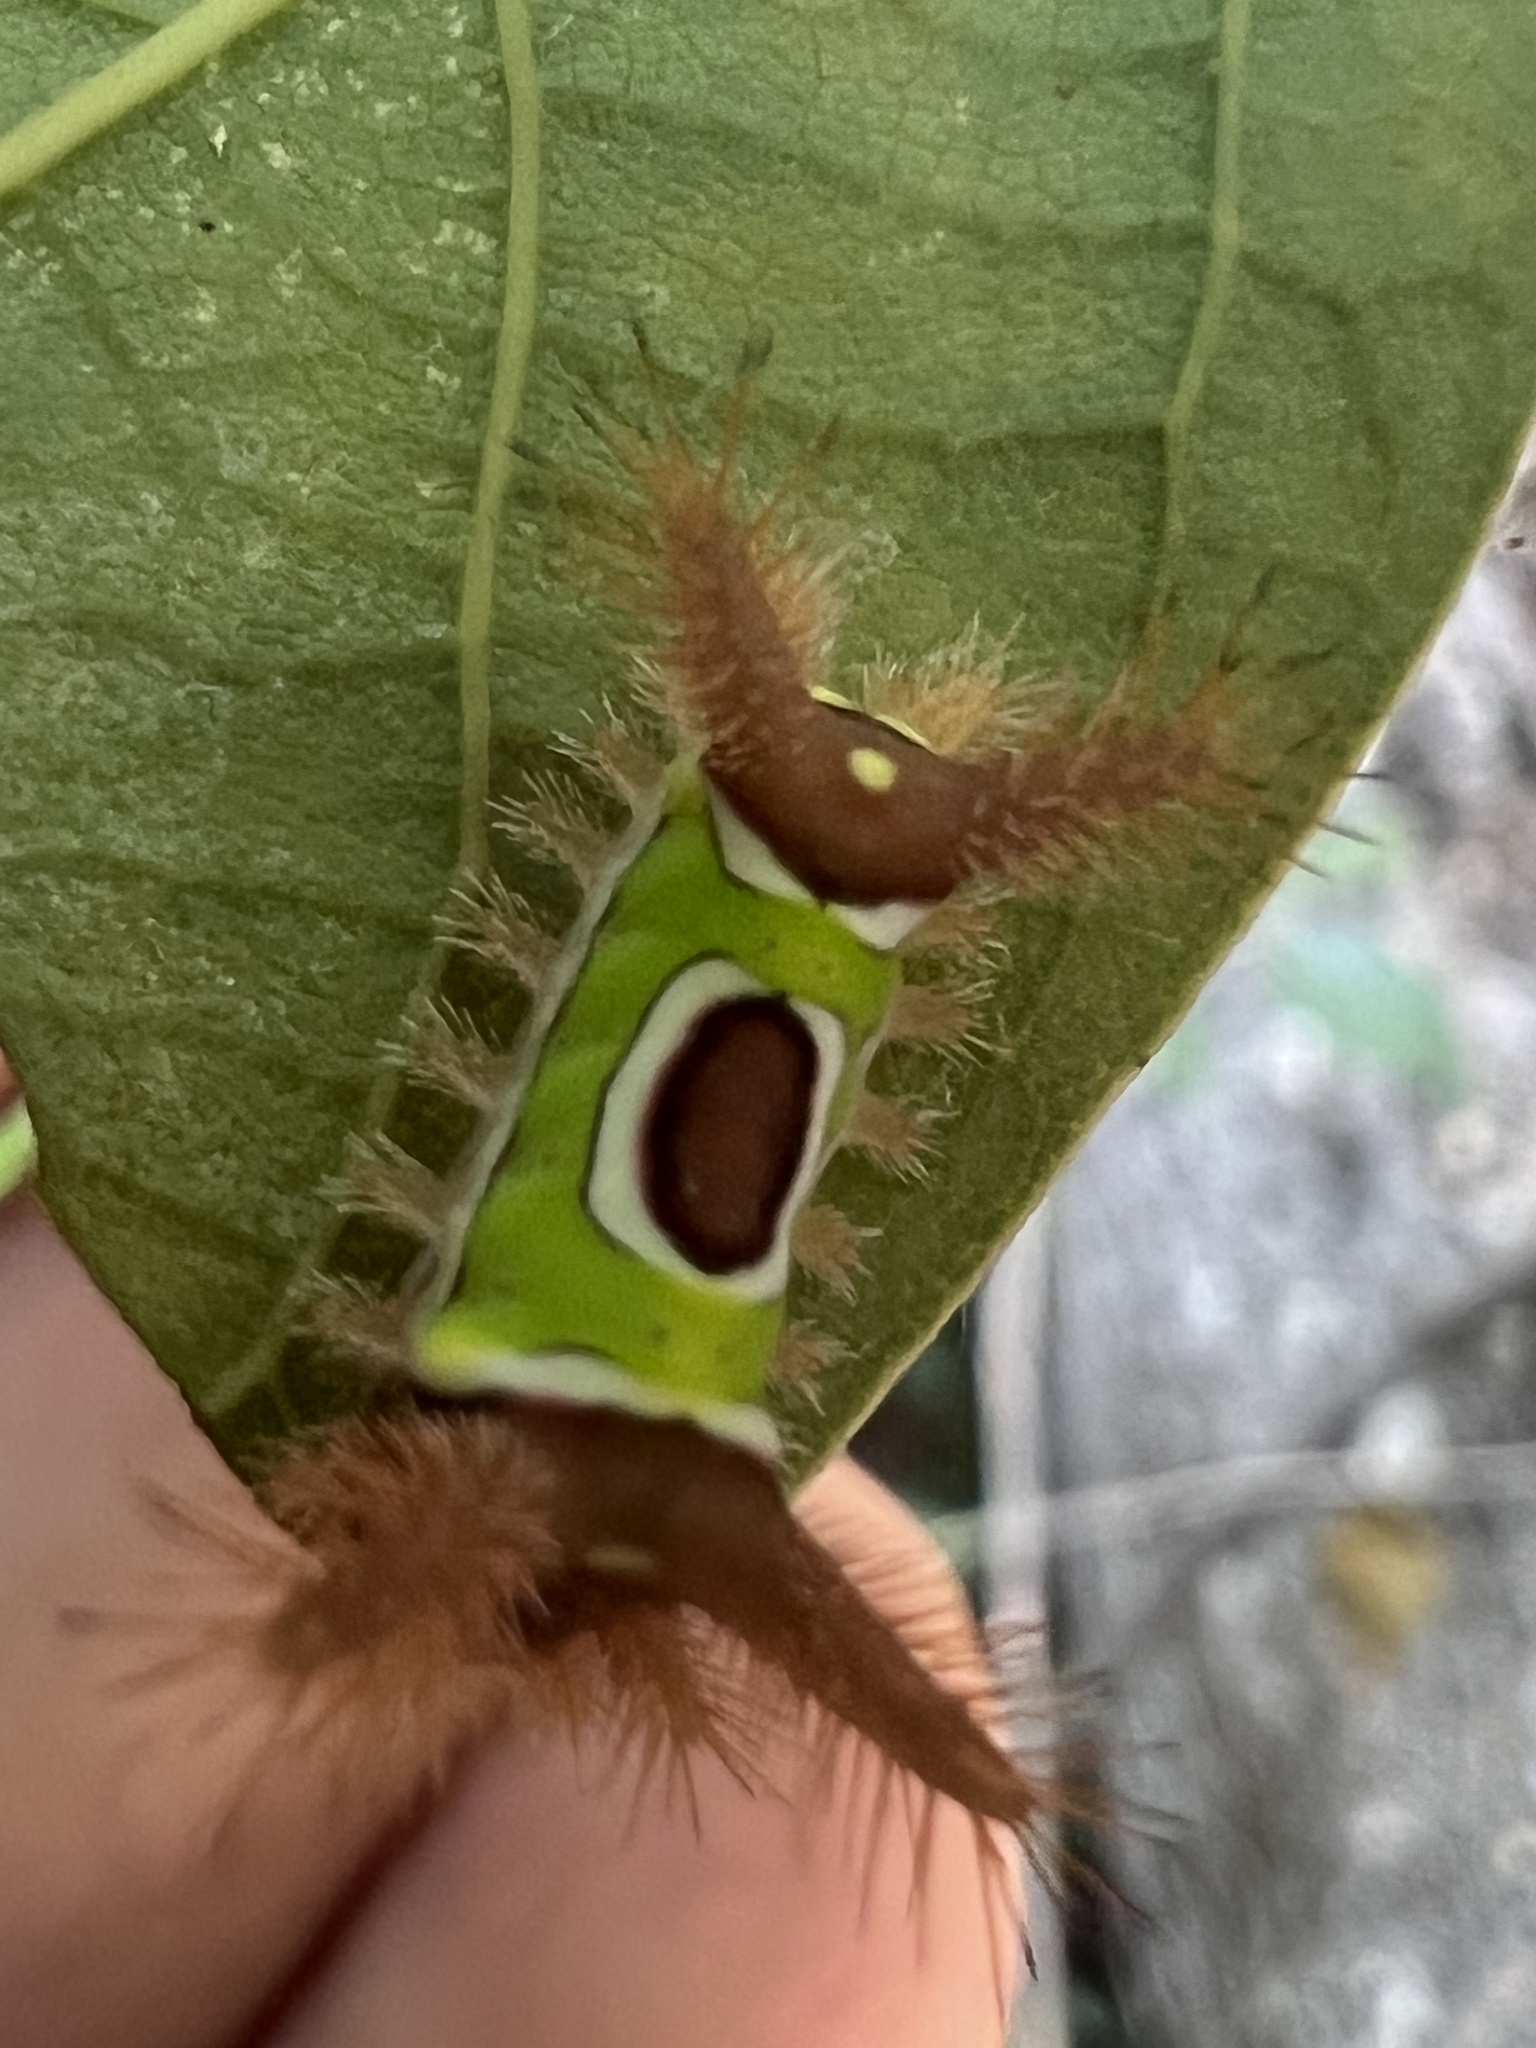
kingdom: Animalia
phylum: Arthropoda
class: Insecta
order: Lepidoptera
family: Limacodidae
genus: Acharia
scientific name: Acharia stimulea
